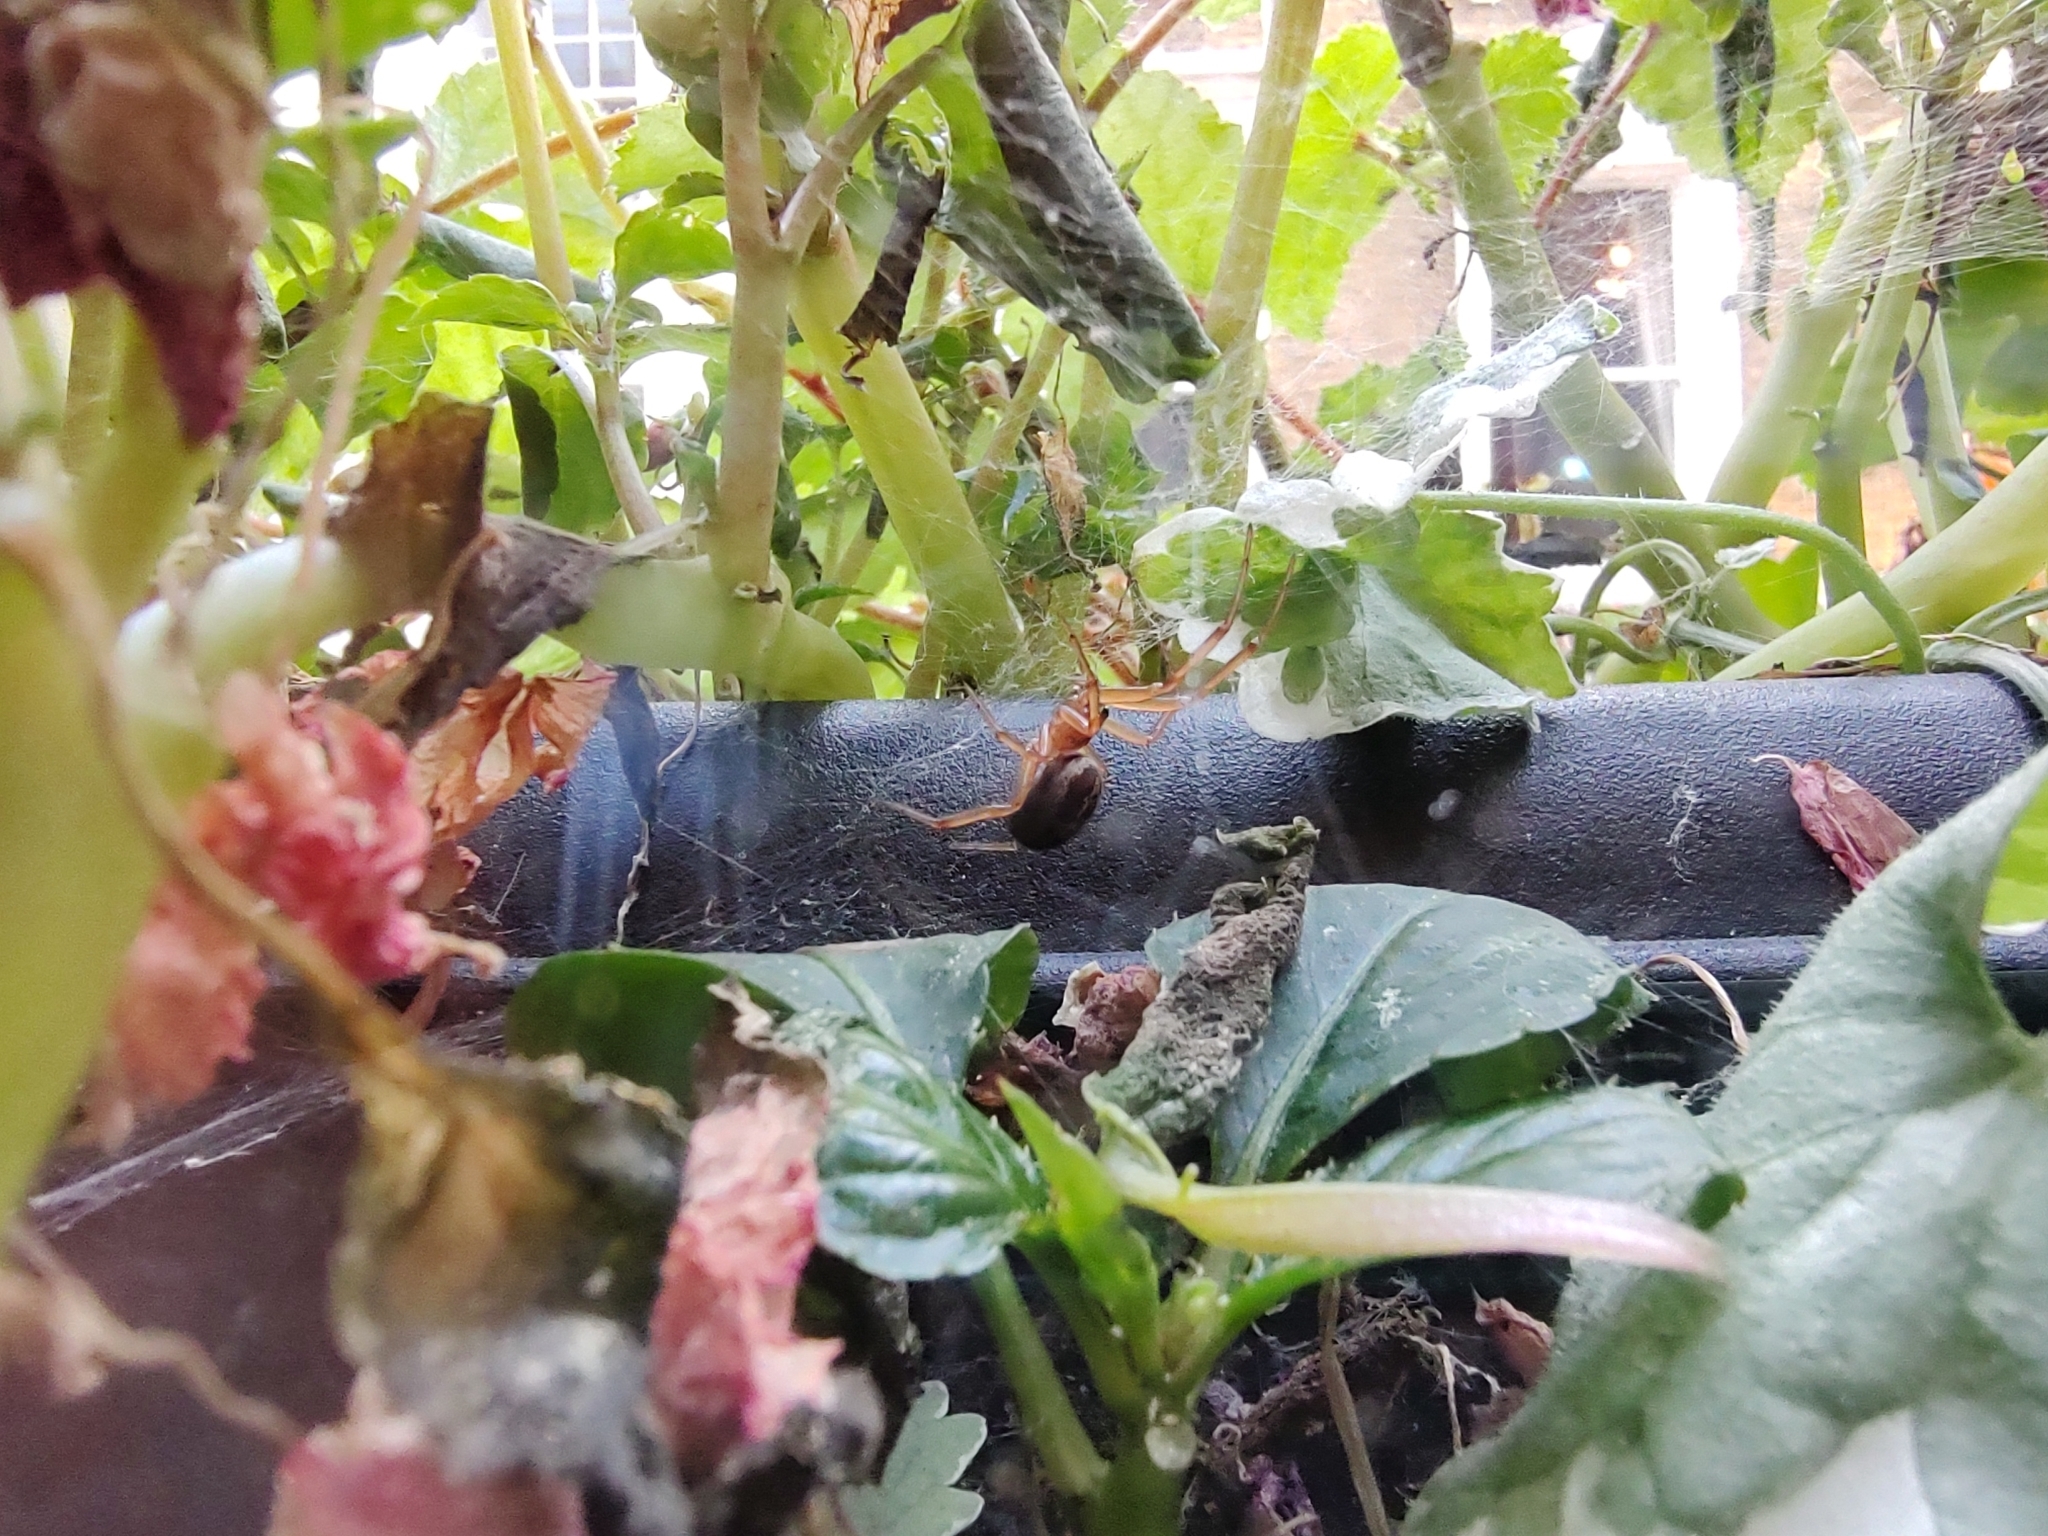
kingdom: Animalia
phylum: Arthropoda
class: Arachnida
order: Araneae
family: Theridiidae
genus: Steatoda
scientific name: Steatoda nobilis
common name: Cobweb weaver
